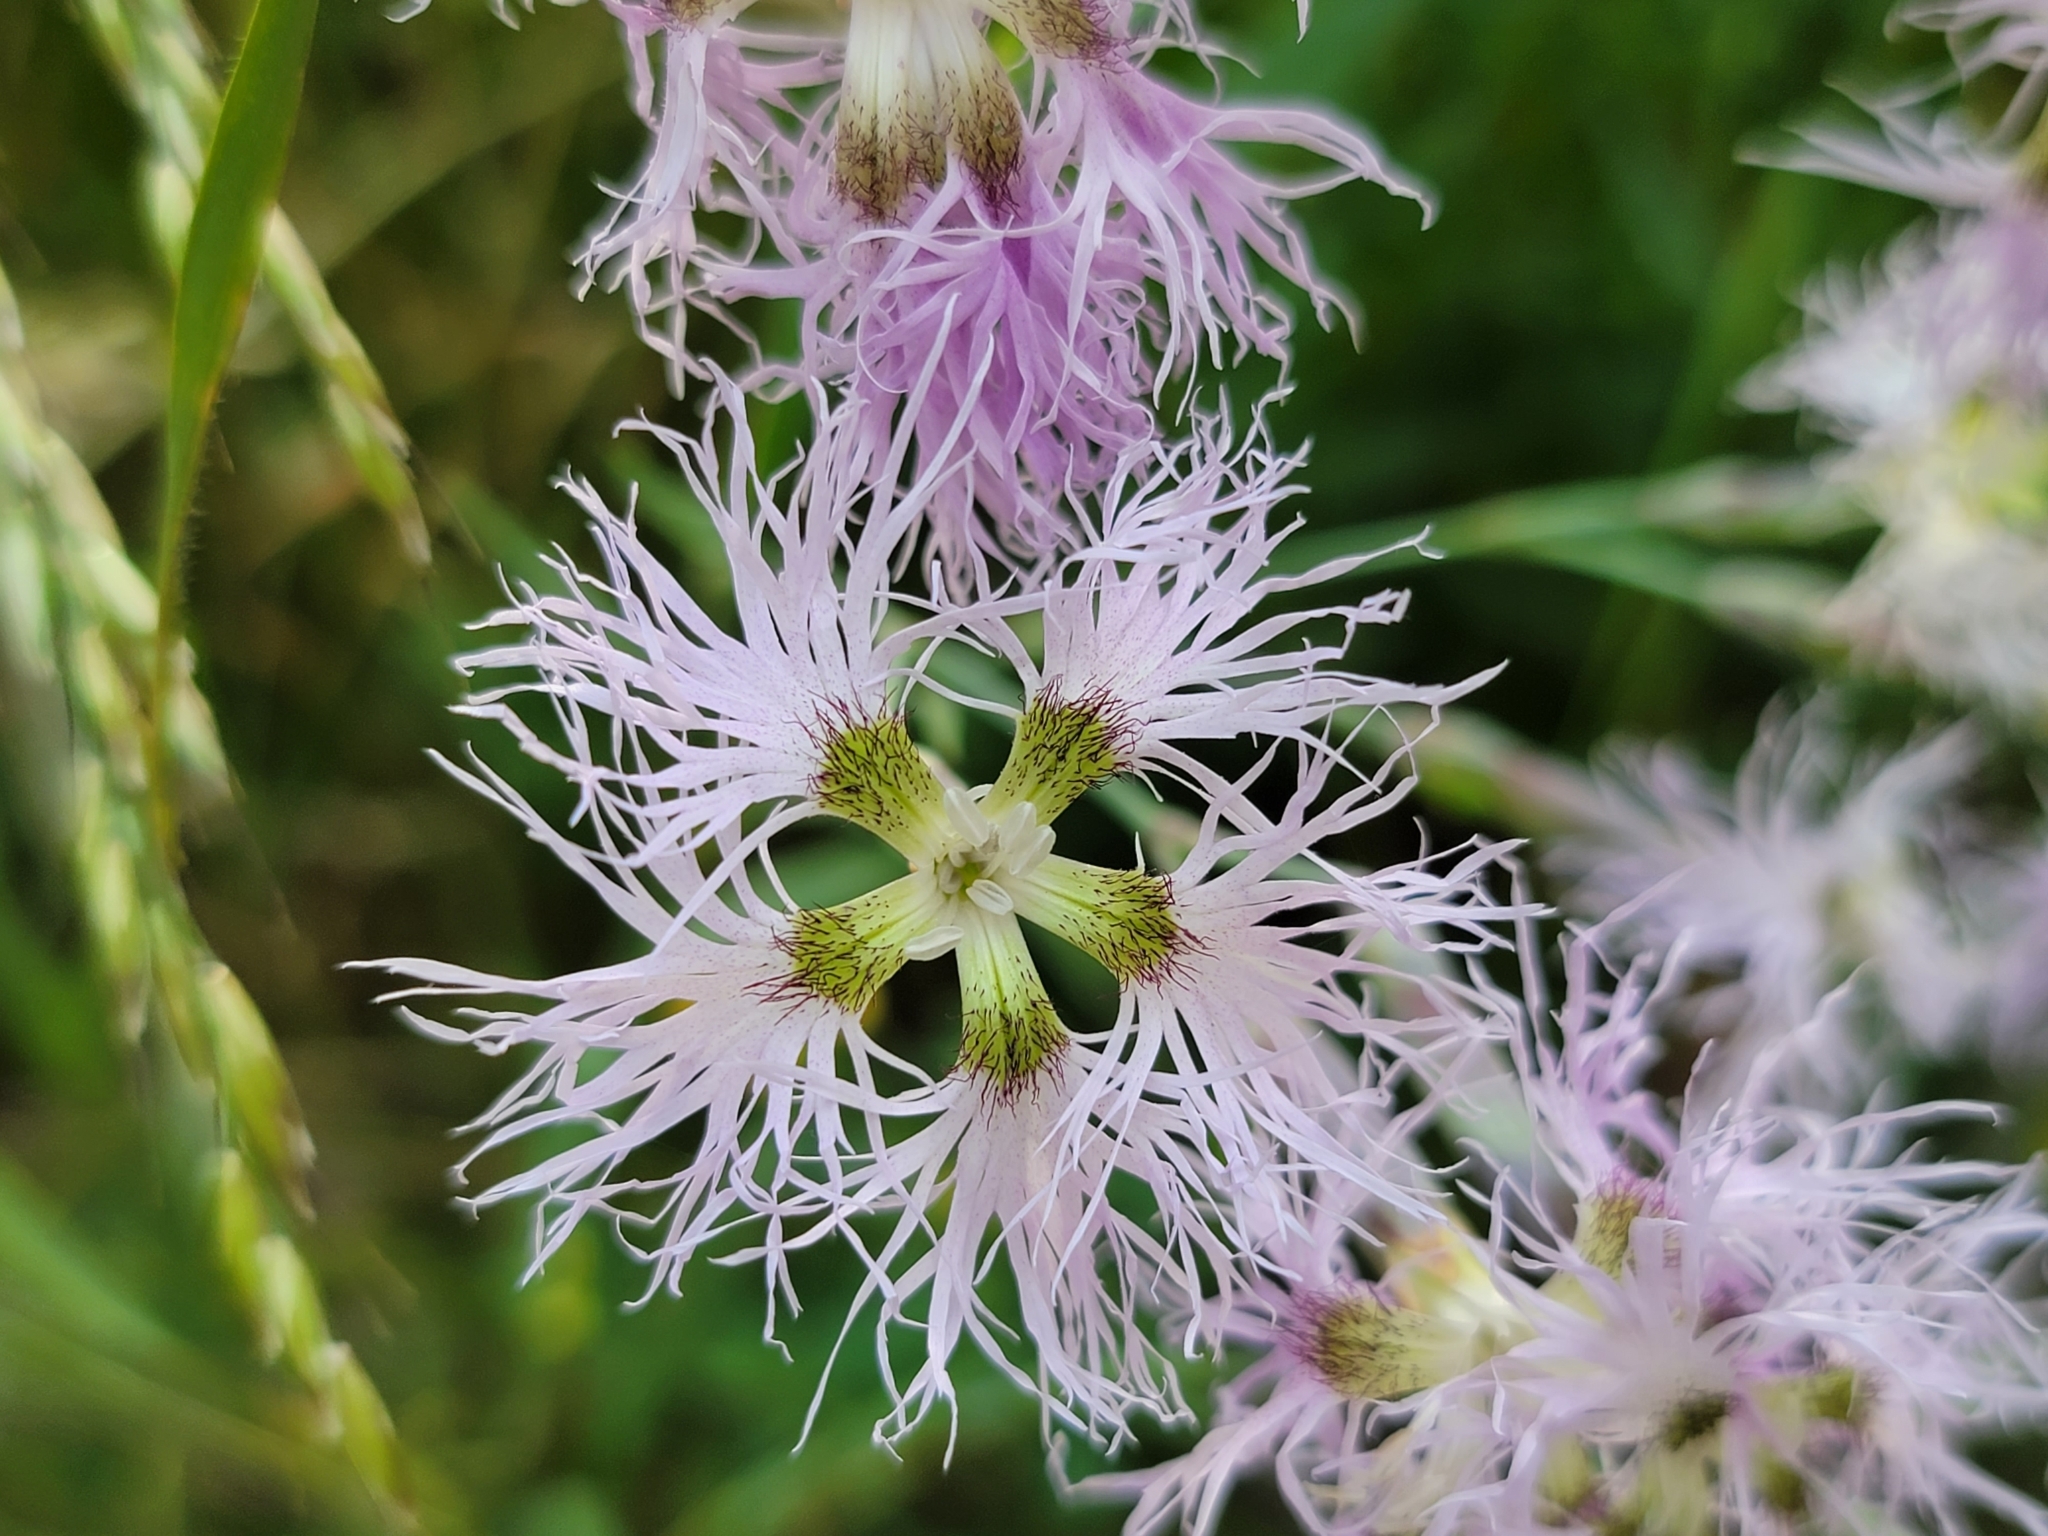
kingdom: Plantae
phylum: Tracheophyta
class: Magnoliopsida
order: Caryophyllales
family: Caryophyllaceae
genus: Dianthus
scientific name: Dianthus superbus
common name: Fringed pink
